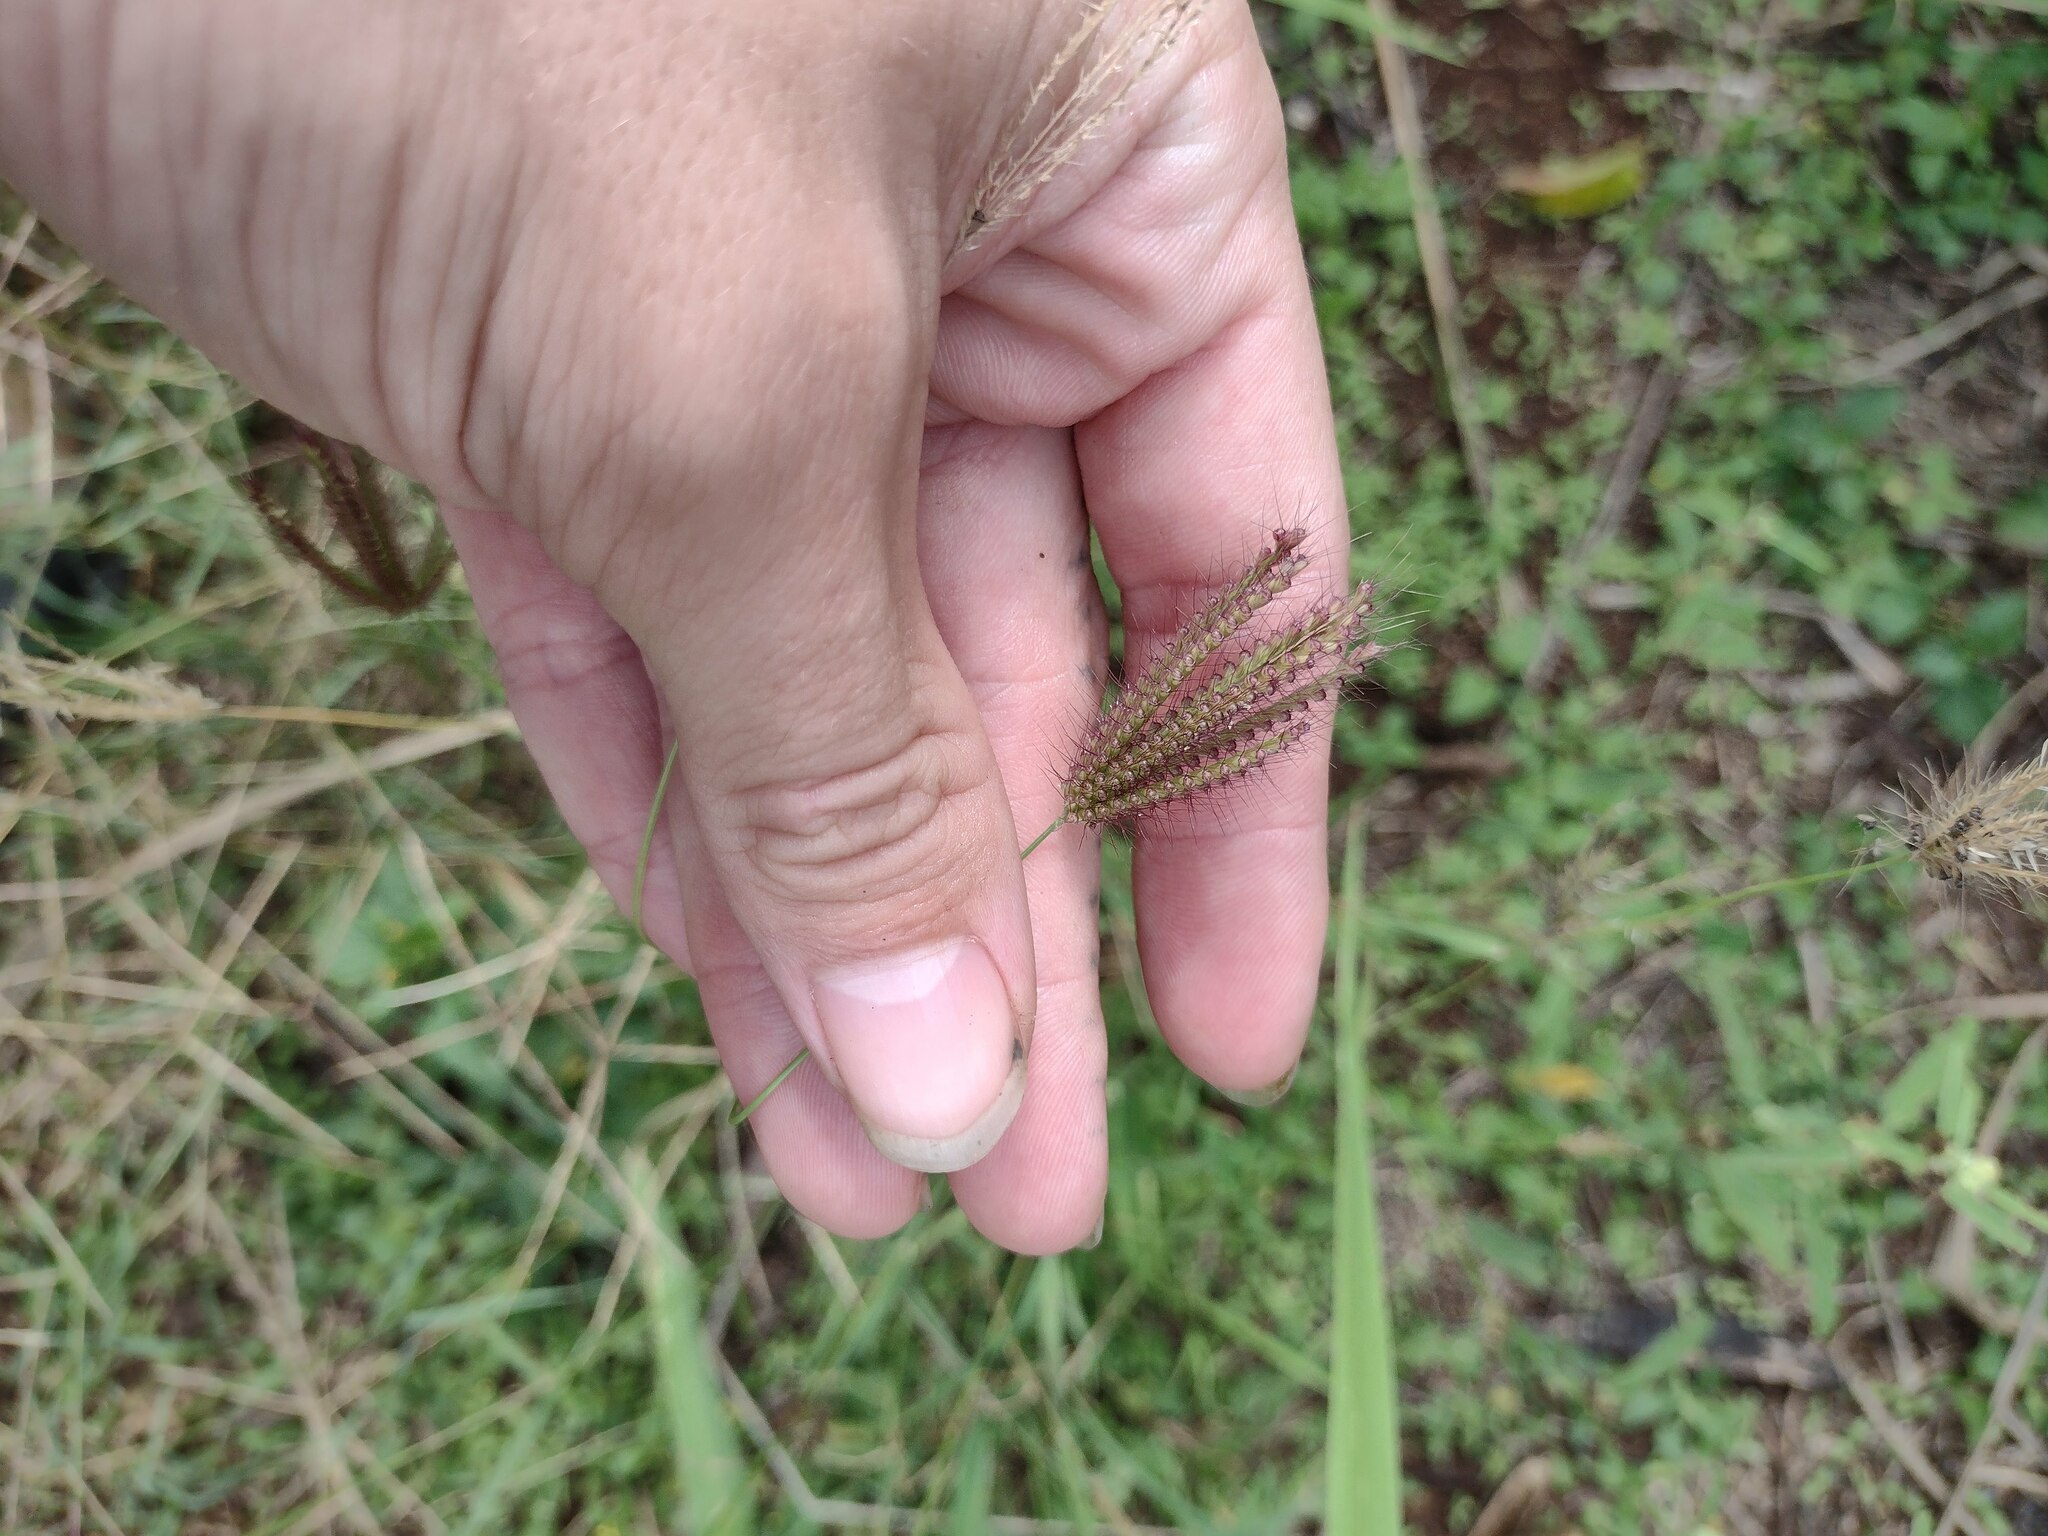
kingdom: Plantae
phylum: Tracheophyta
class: Liliopsida
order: Poales
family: Poaceae
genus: Chloris
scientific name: Chloris barbata
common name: Swollen fingergrass
